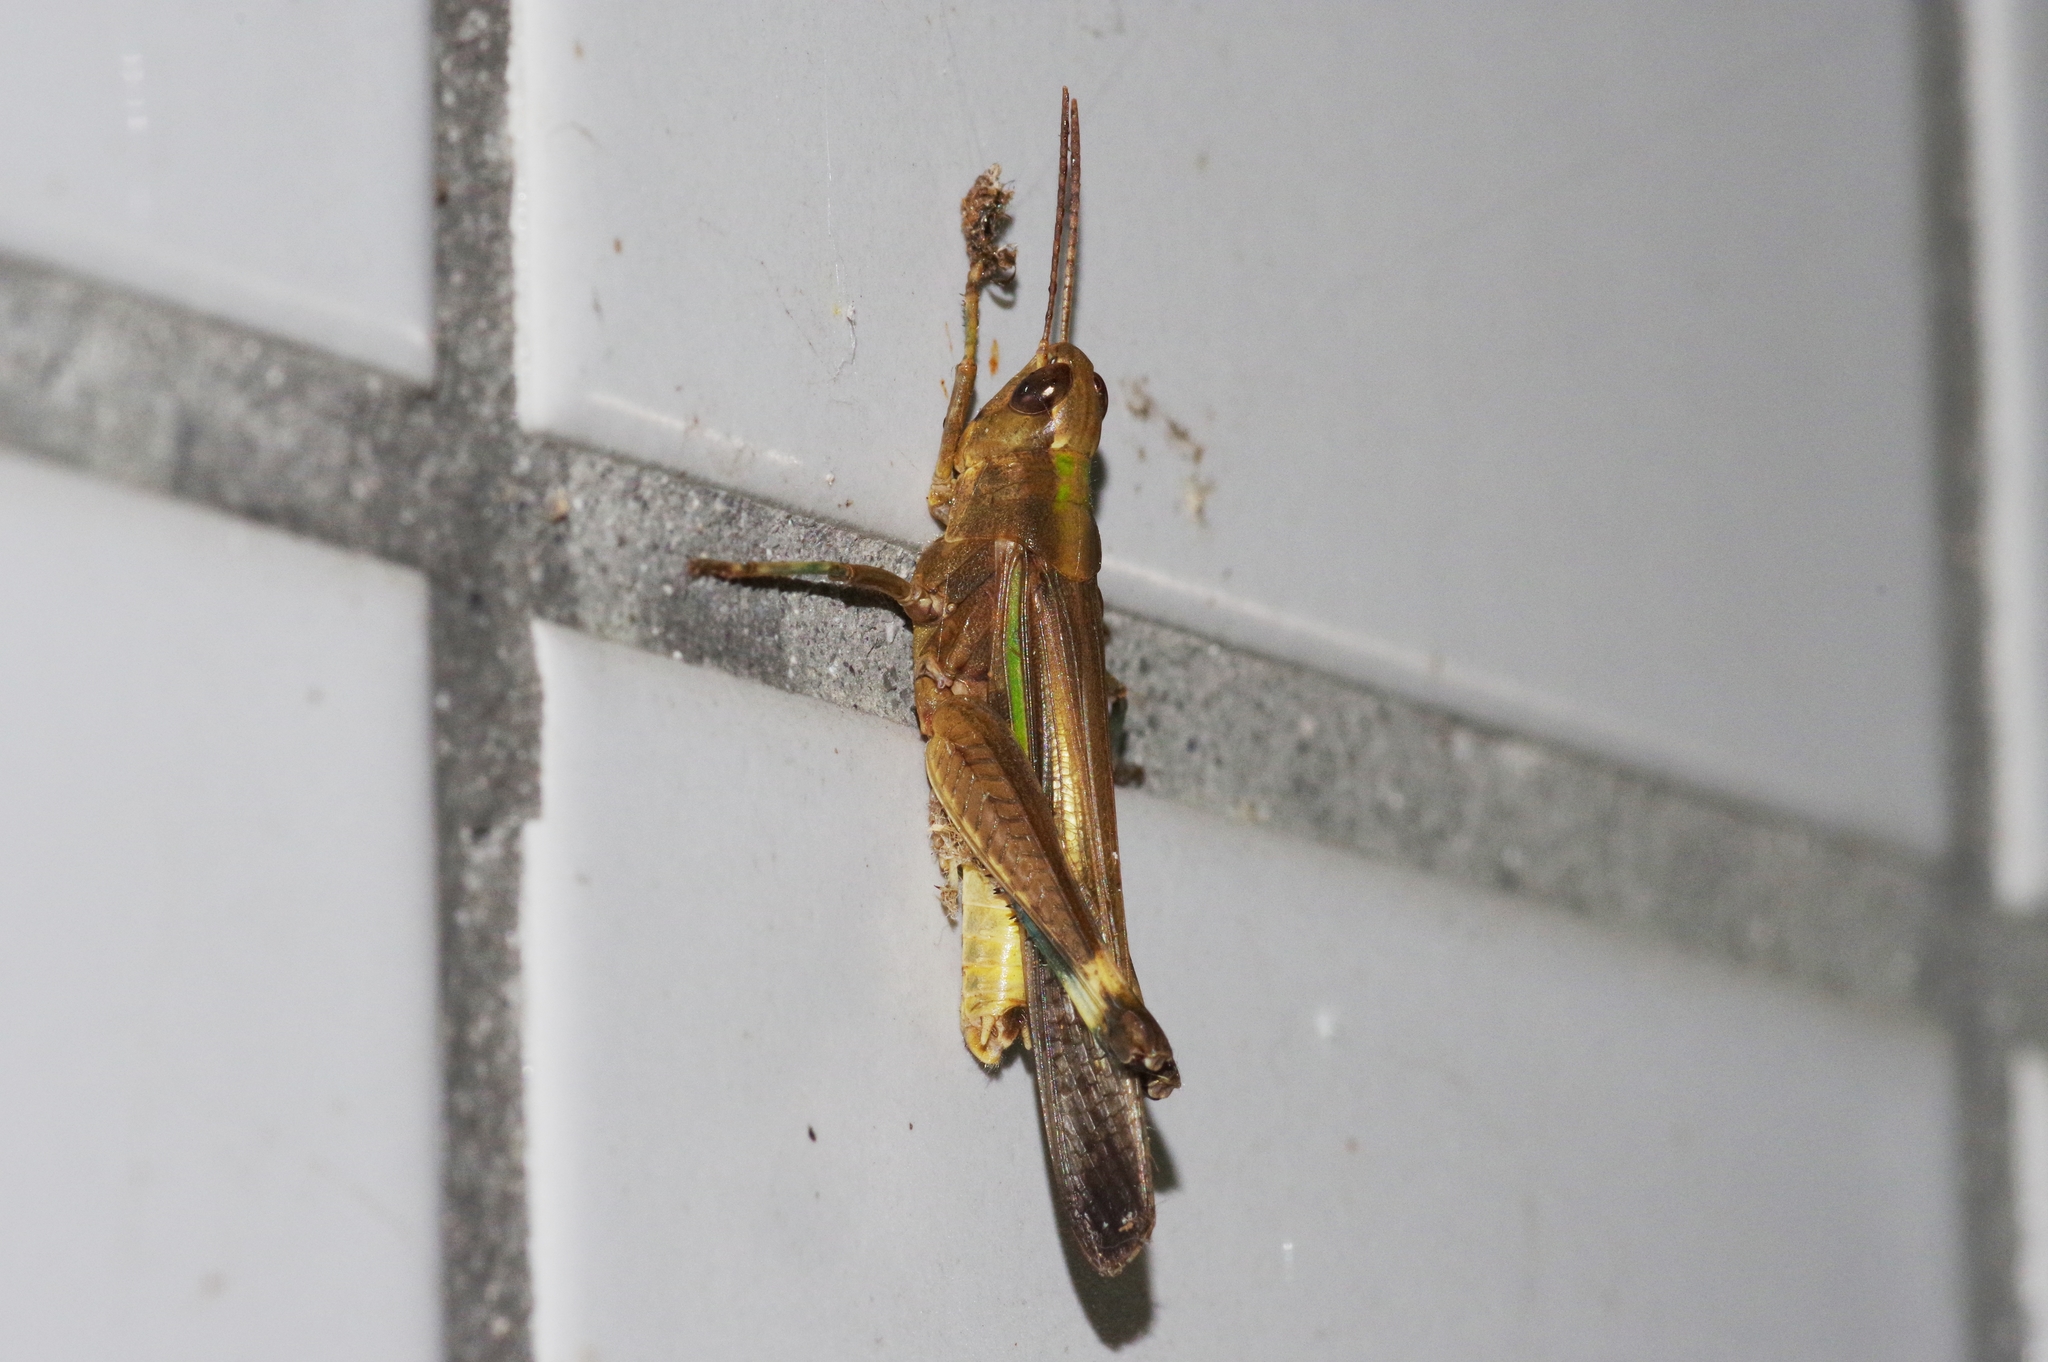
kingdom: Animalia
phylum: Arthropoda
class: Insecta
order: Orthoptera
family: Acrididae
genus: Aiolopus
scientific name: Aiolopus thalassinus
